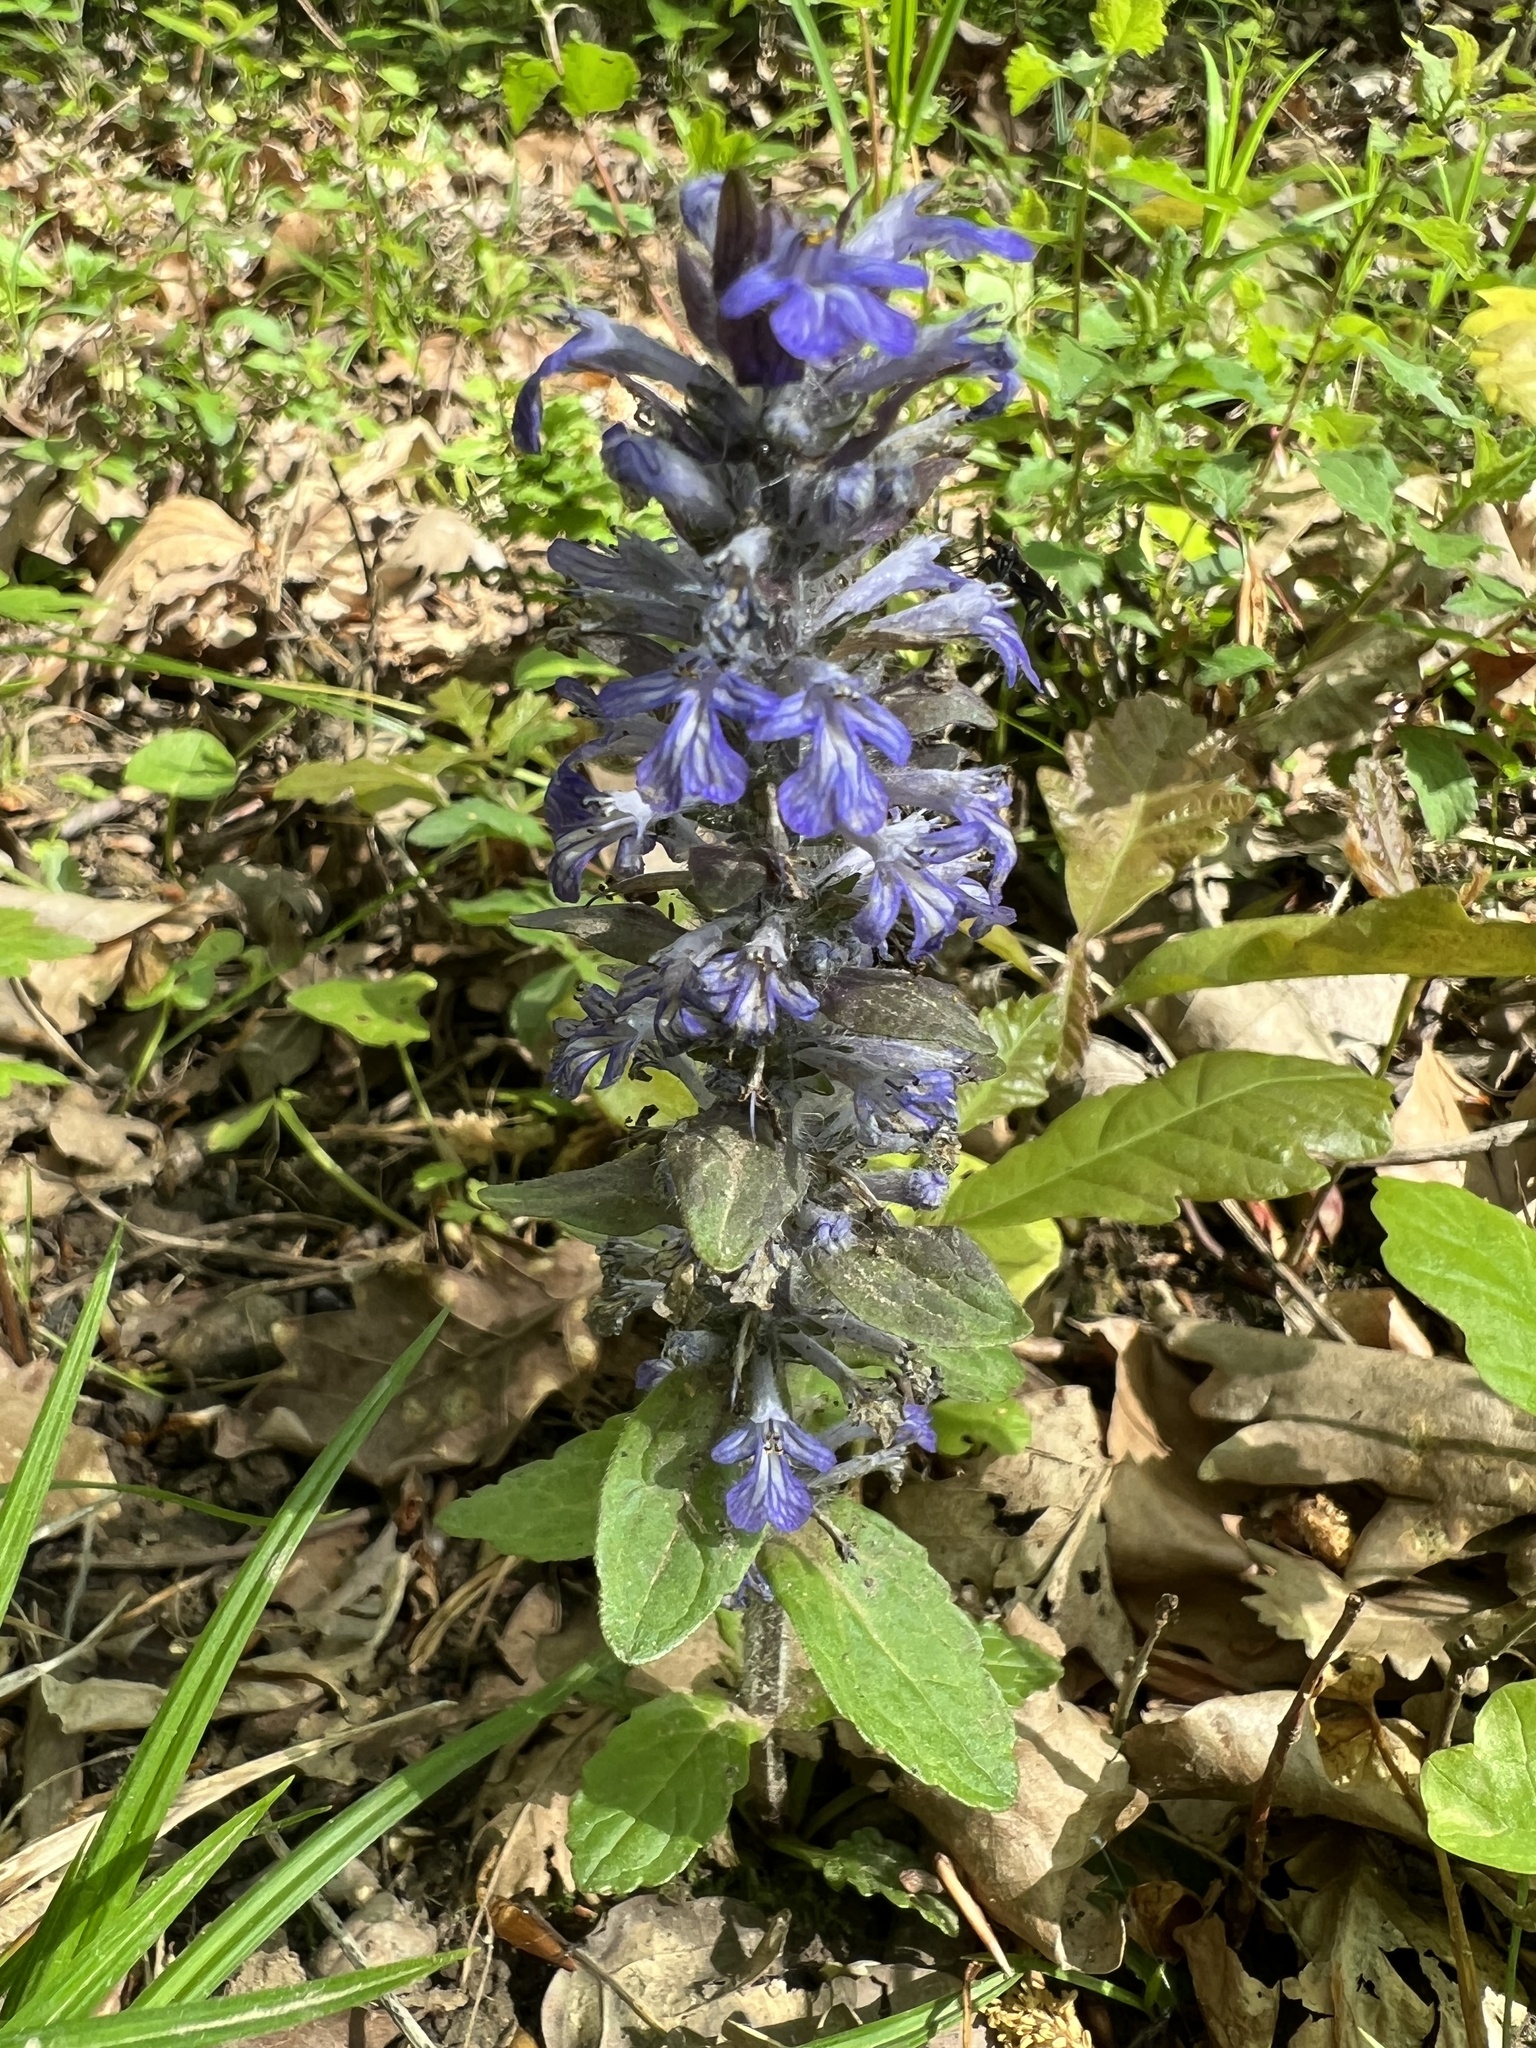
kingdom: Plantae
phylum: Tracheophyta
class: Magnoliopsida
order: Lamiales
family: Lamiaceae
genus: Ajuga
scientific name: Ajuga reptans
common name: Bugle
